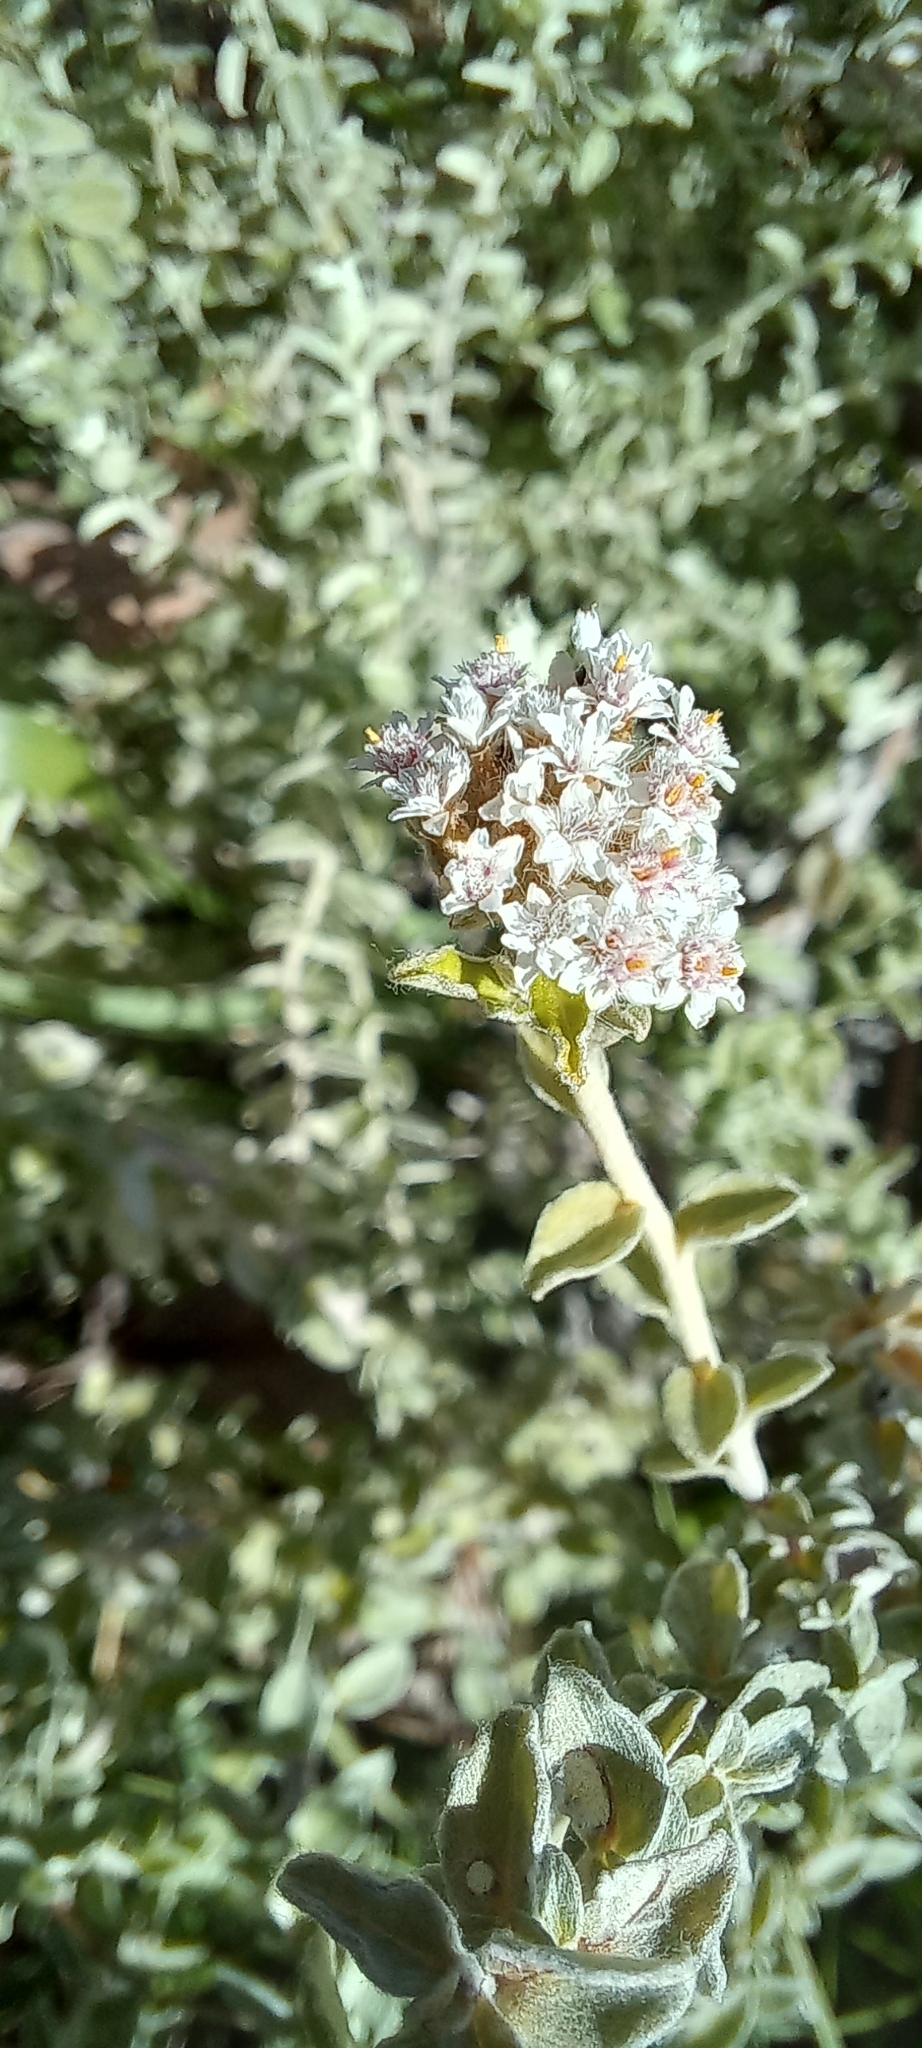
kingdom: Plantae
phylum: Tracheophyta
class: Magnoliopsida
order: Asterales
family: Asteraceae
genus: Plecostachys
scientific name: Plecostachys serpyllifolia
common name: Petite licorice
